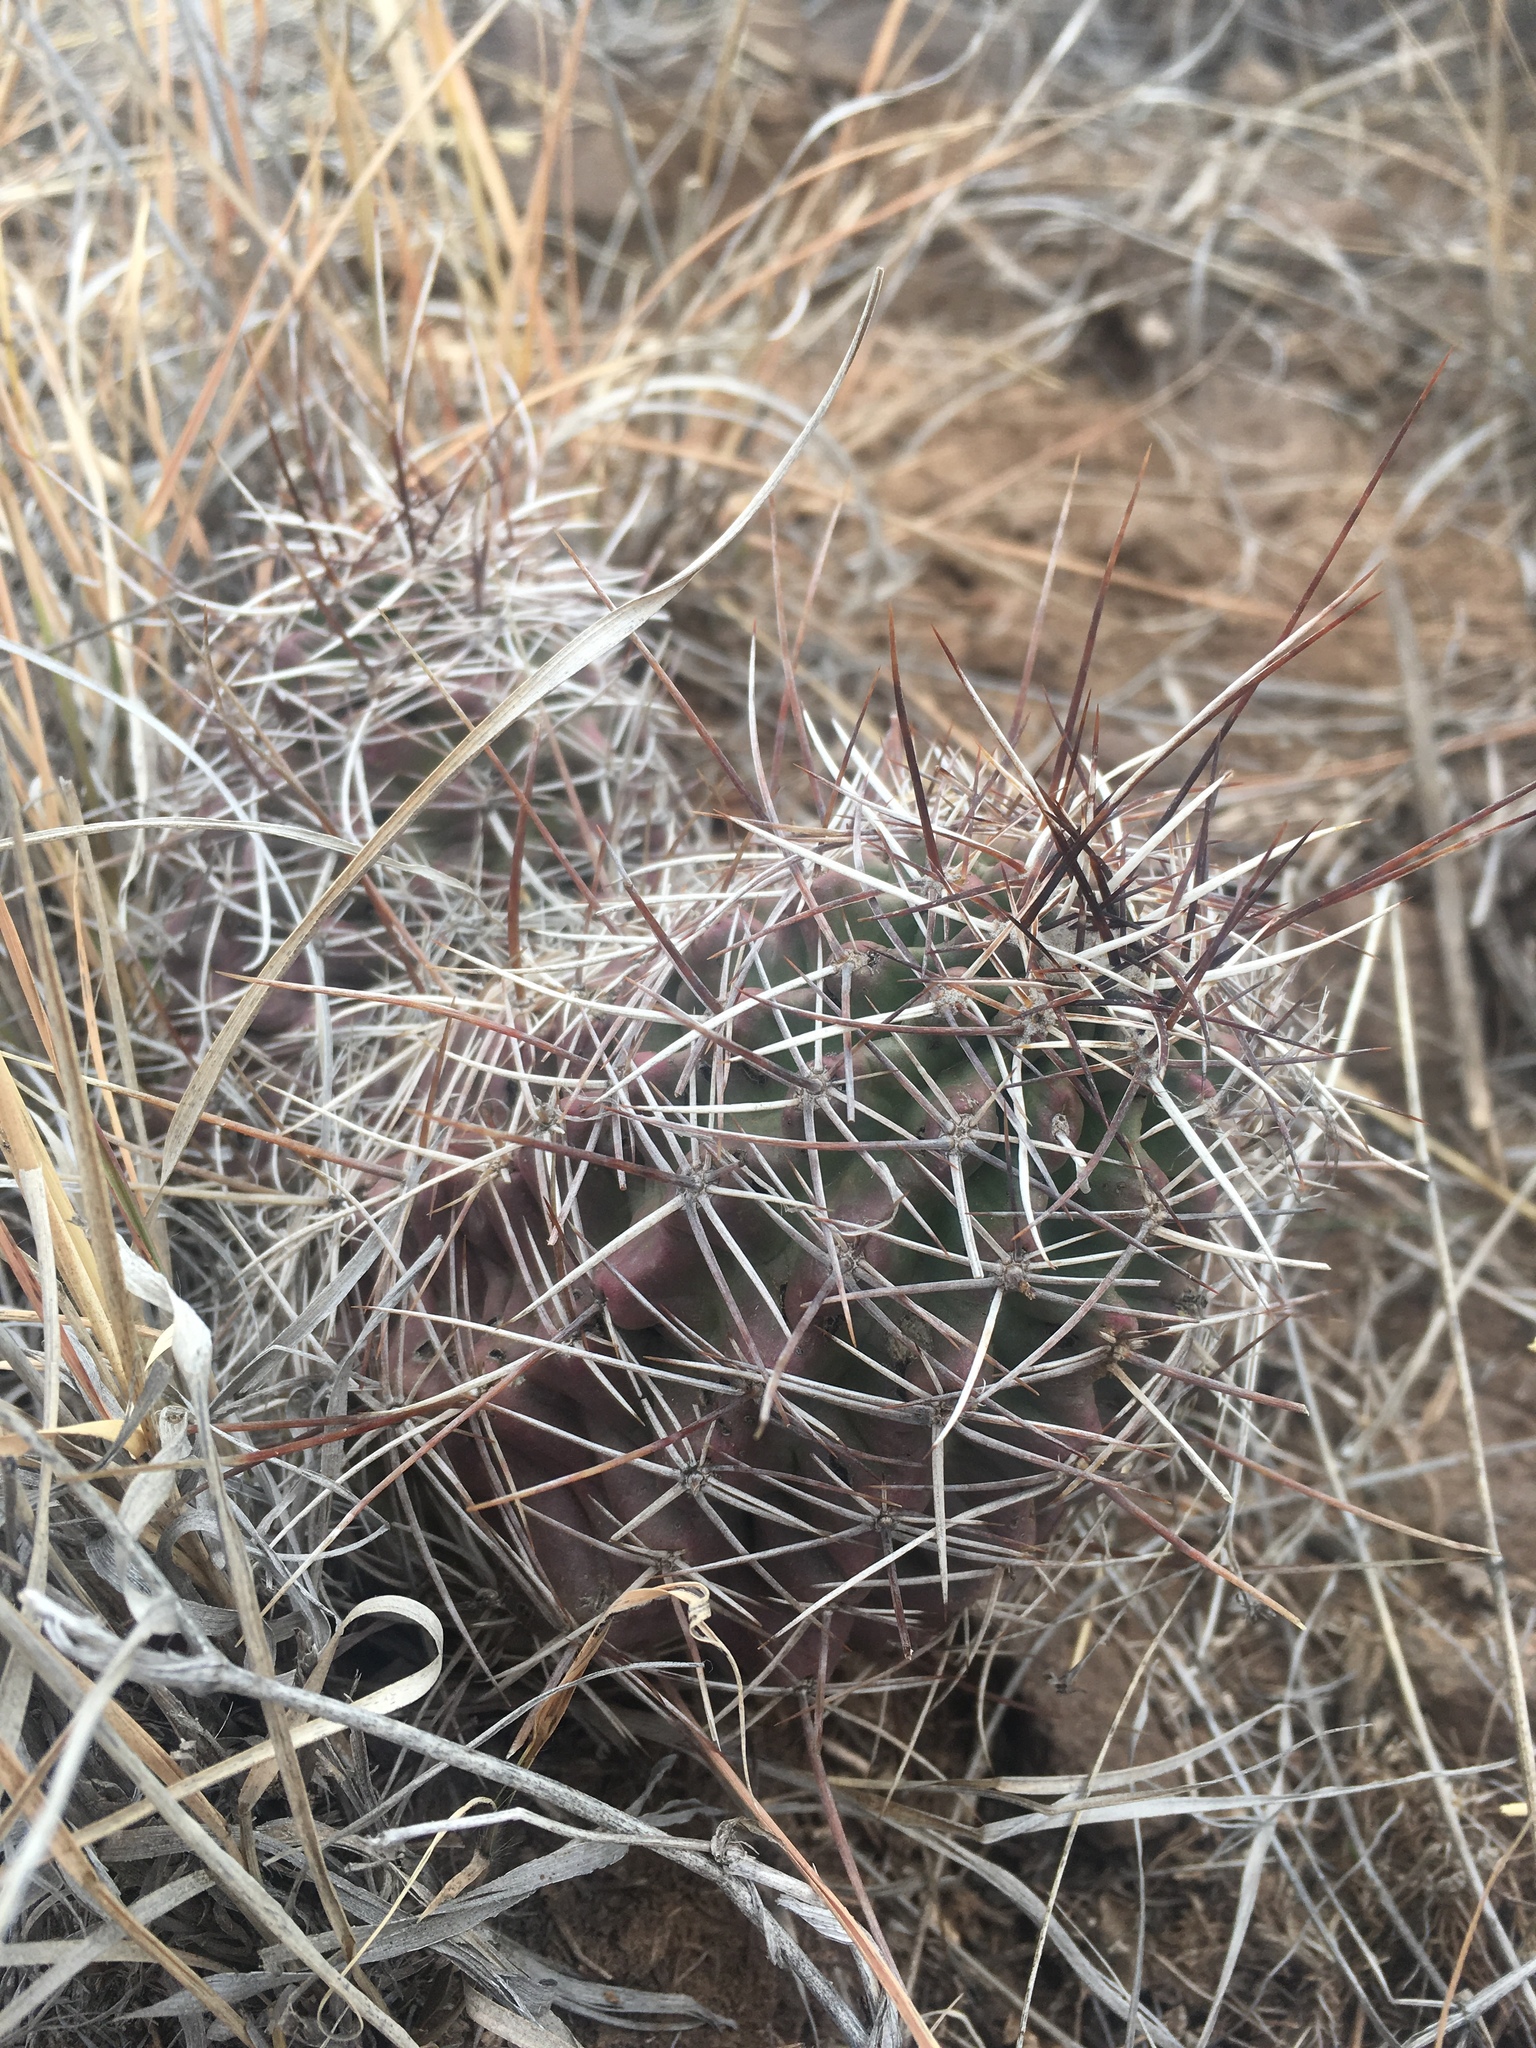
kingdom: Plantae
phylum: Tracheophyta
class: Magnoliopsida
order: Caryophyllales
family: Cactaceae
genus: Echinocereus
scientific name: Echinocereus fendleri
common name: Fendler's hedgehog cactus
